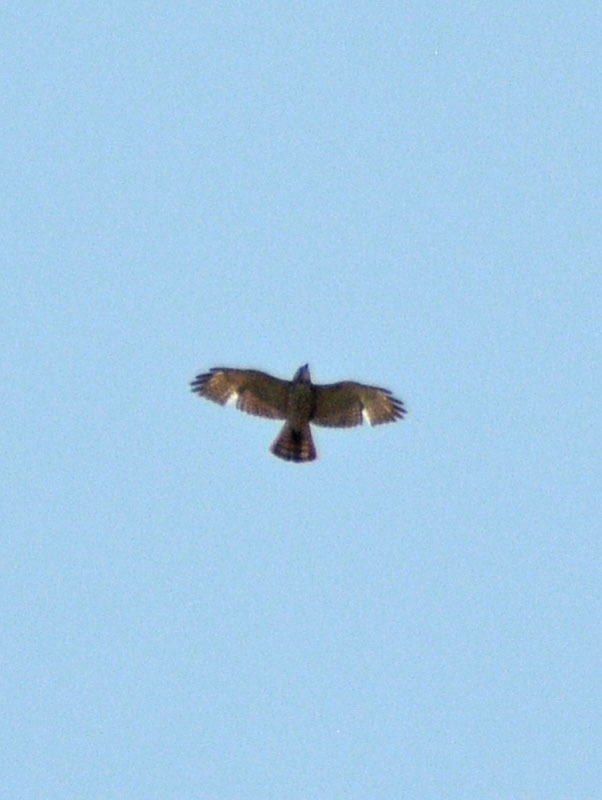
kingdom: Animalia
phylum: Chordata
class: Aves
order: Accipitriformes
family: Accipitridae
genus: Buteo
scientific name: Buteo platypterus
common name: Broad-winged hawk
